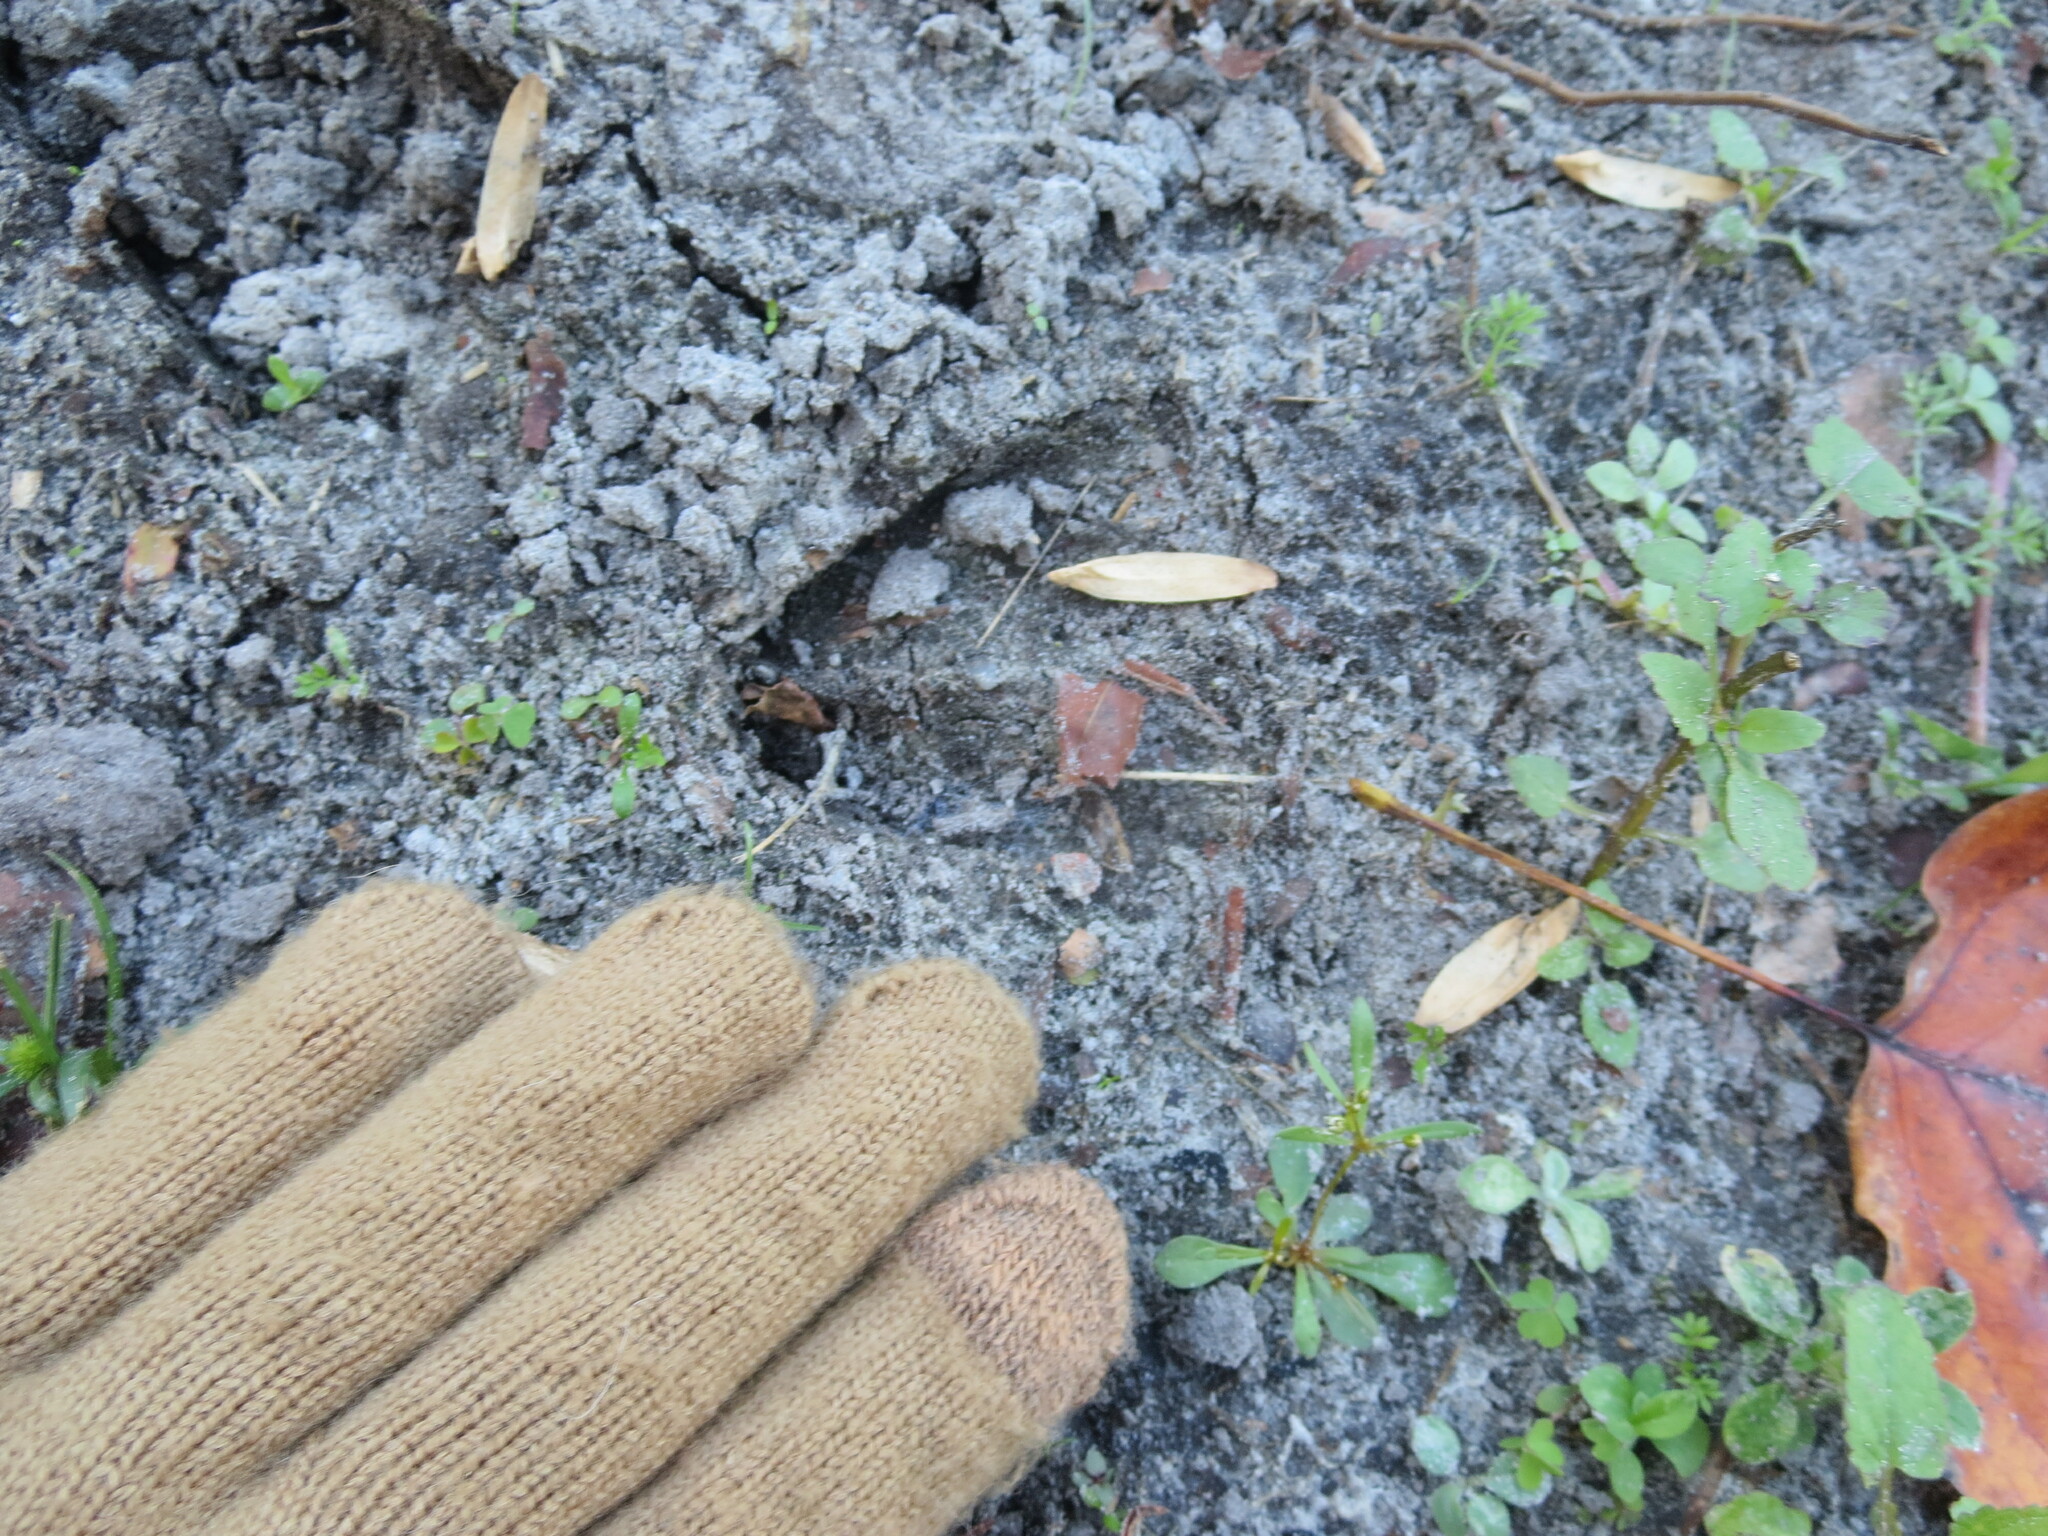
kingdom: Animalia
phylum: Chordata
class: Mammalia
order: Artiodactyla
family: Cervidae
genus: Odocoileus
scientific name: Odocoileus virginianus
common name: White-tailed deer
